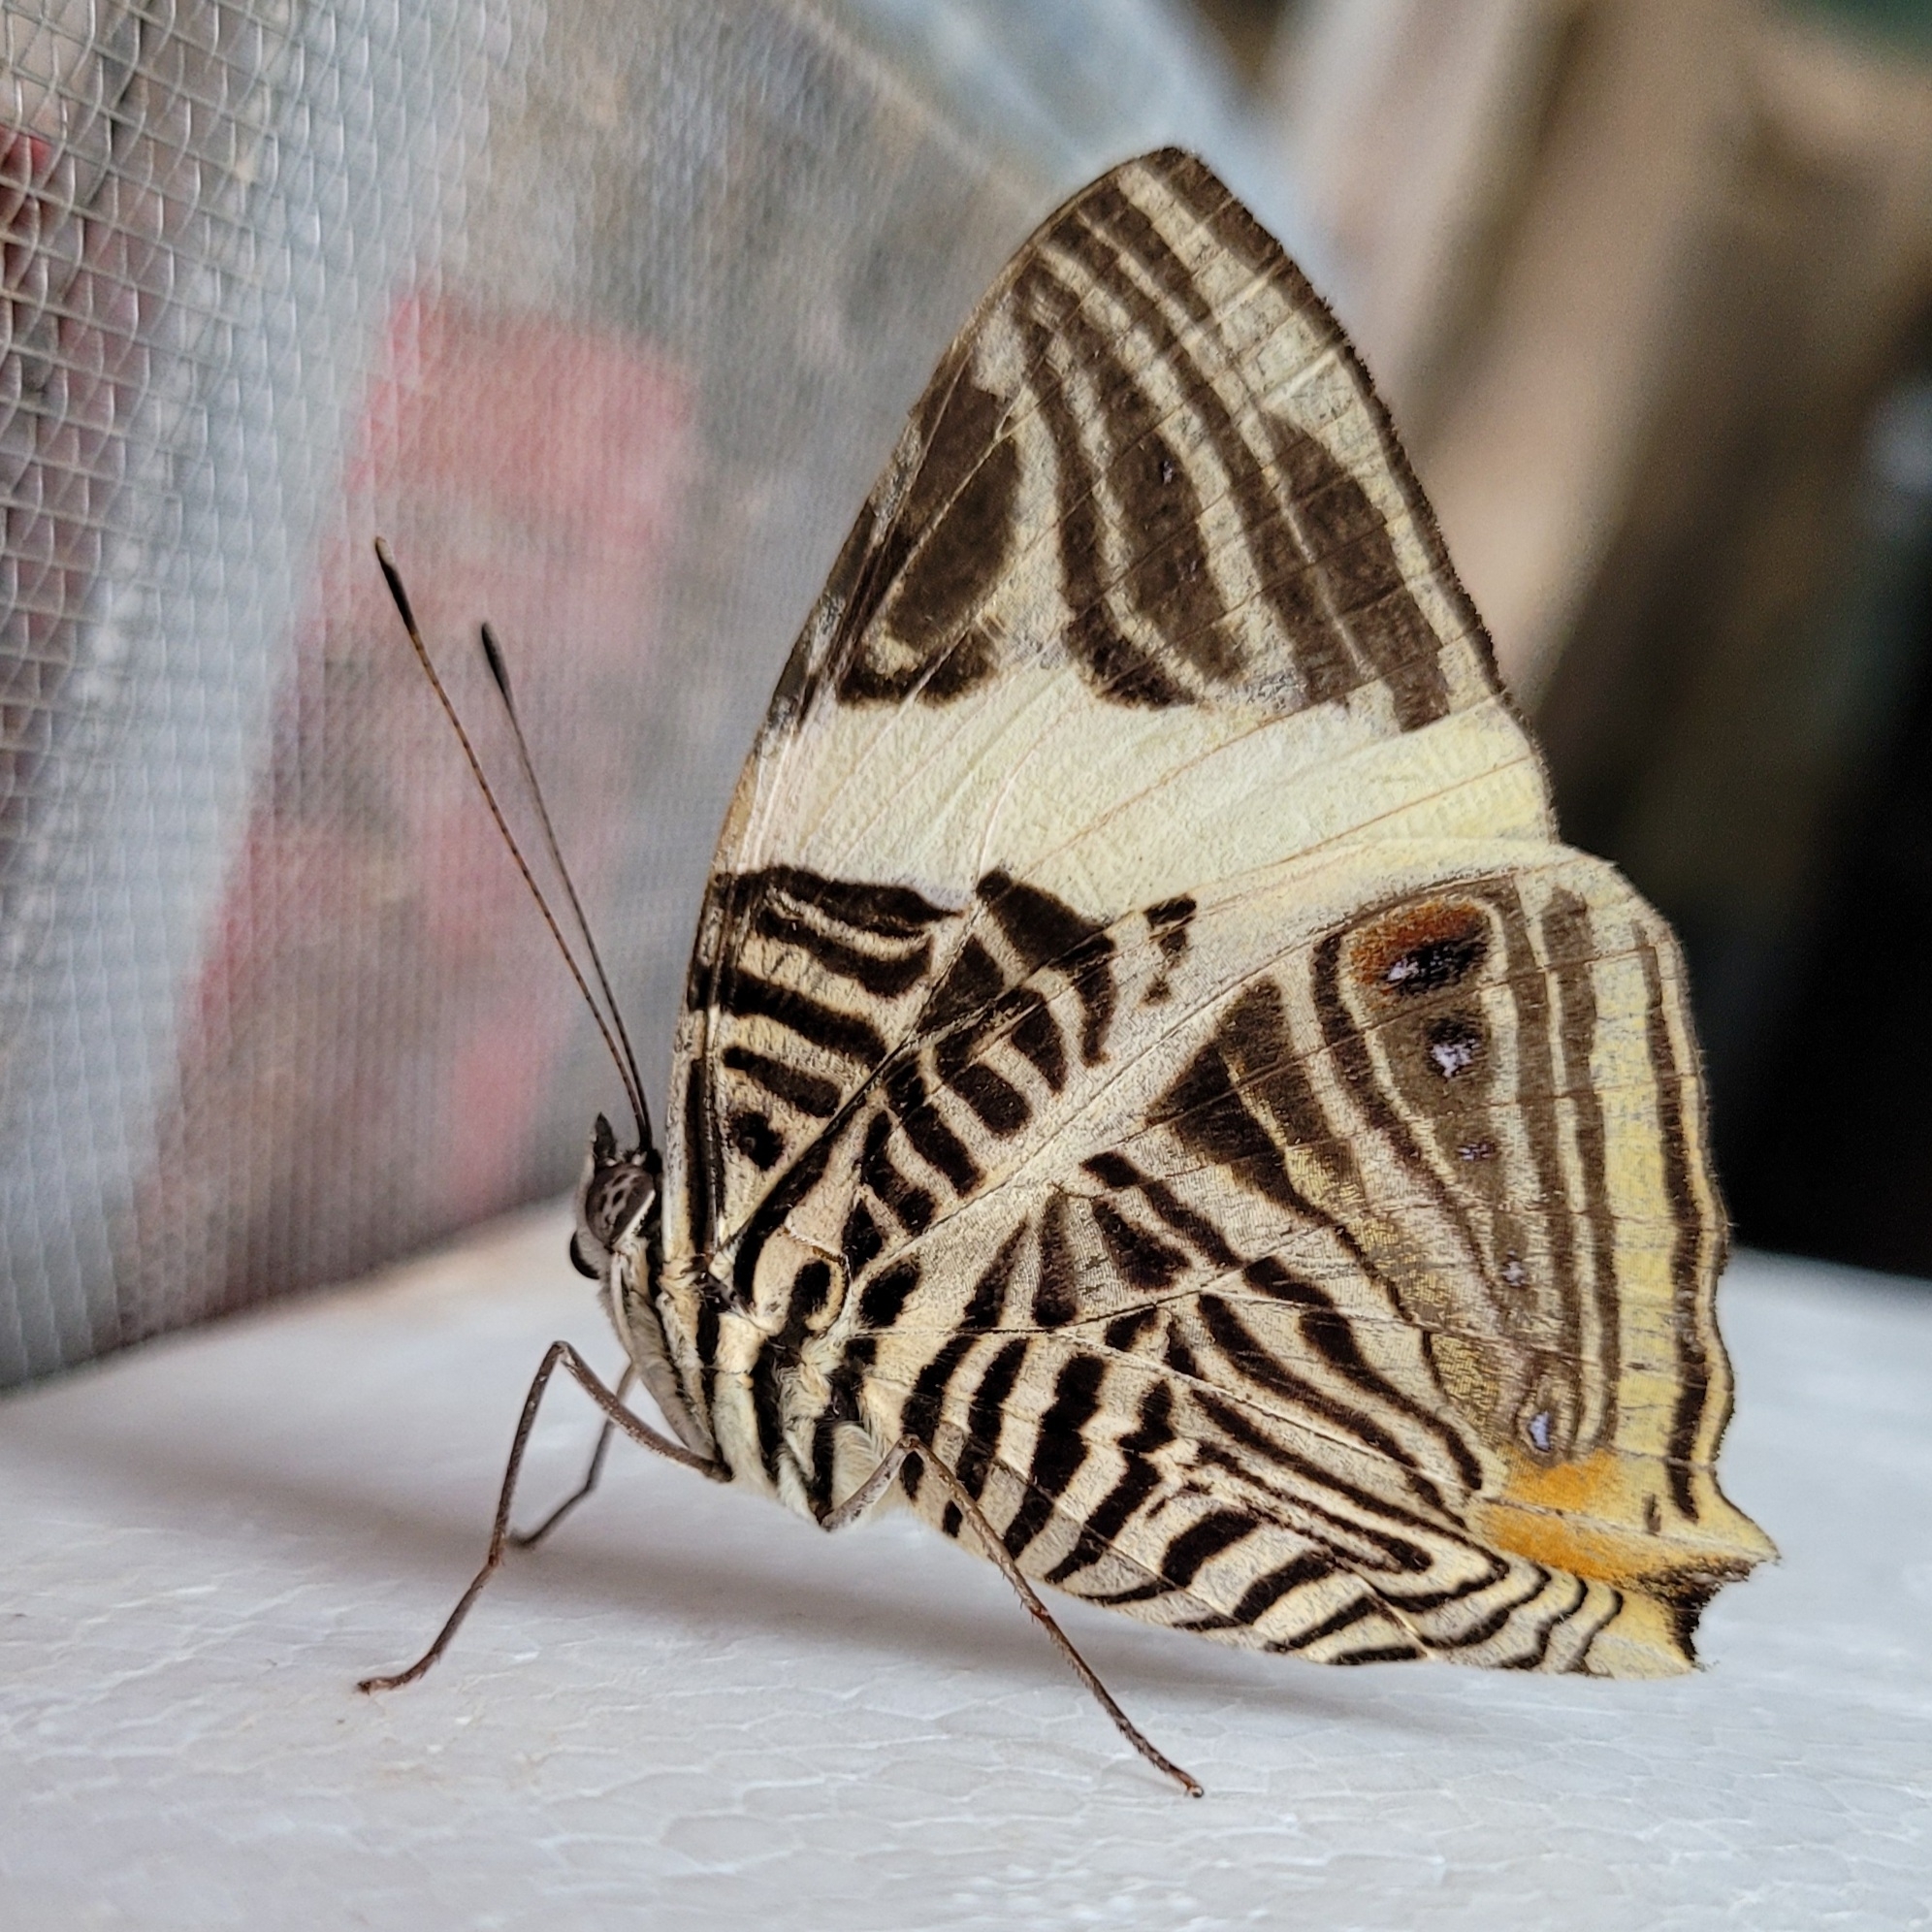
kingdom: Animalia
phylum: Arthropoda
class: Insecta
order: Lepidoptera
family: Nymphalidae
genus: Colobura
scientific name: Colobura dirce
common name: Dirce beauty
